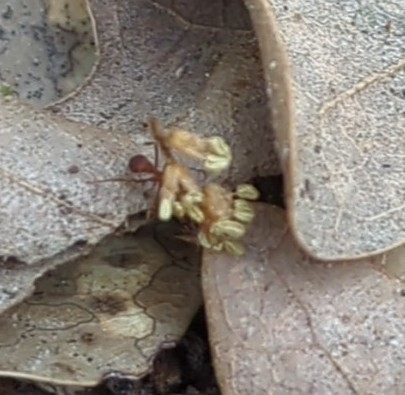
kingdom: Animalia
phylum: Arthropoda
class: Insecta
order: Hymenoptera
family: Formicidae
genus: Trachymyrmex
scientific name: Trachymyrmex septentrionalis
